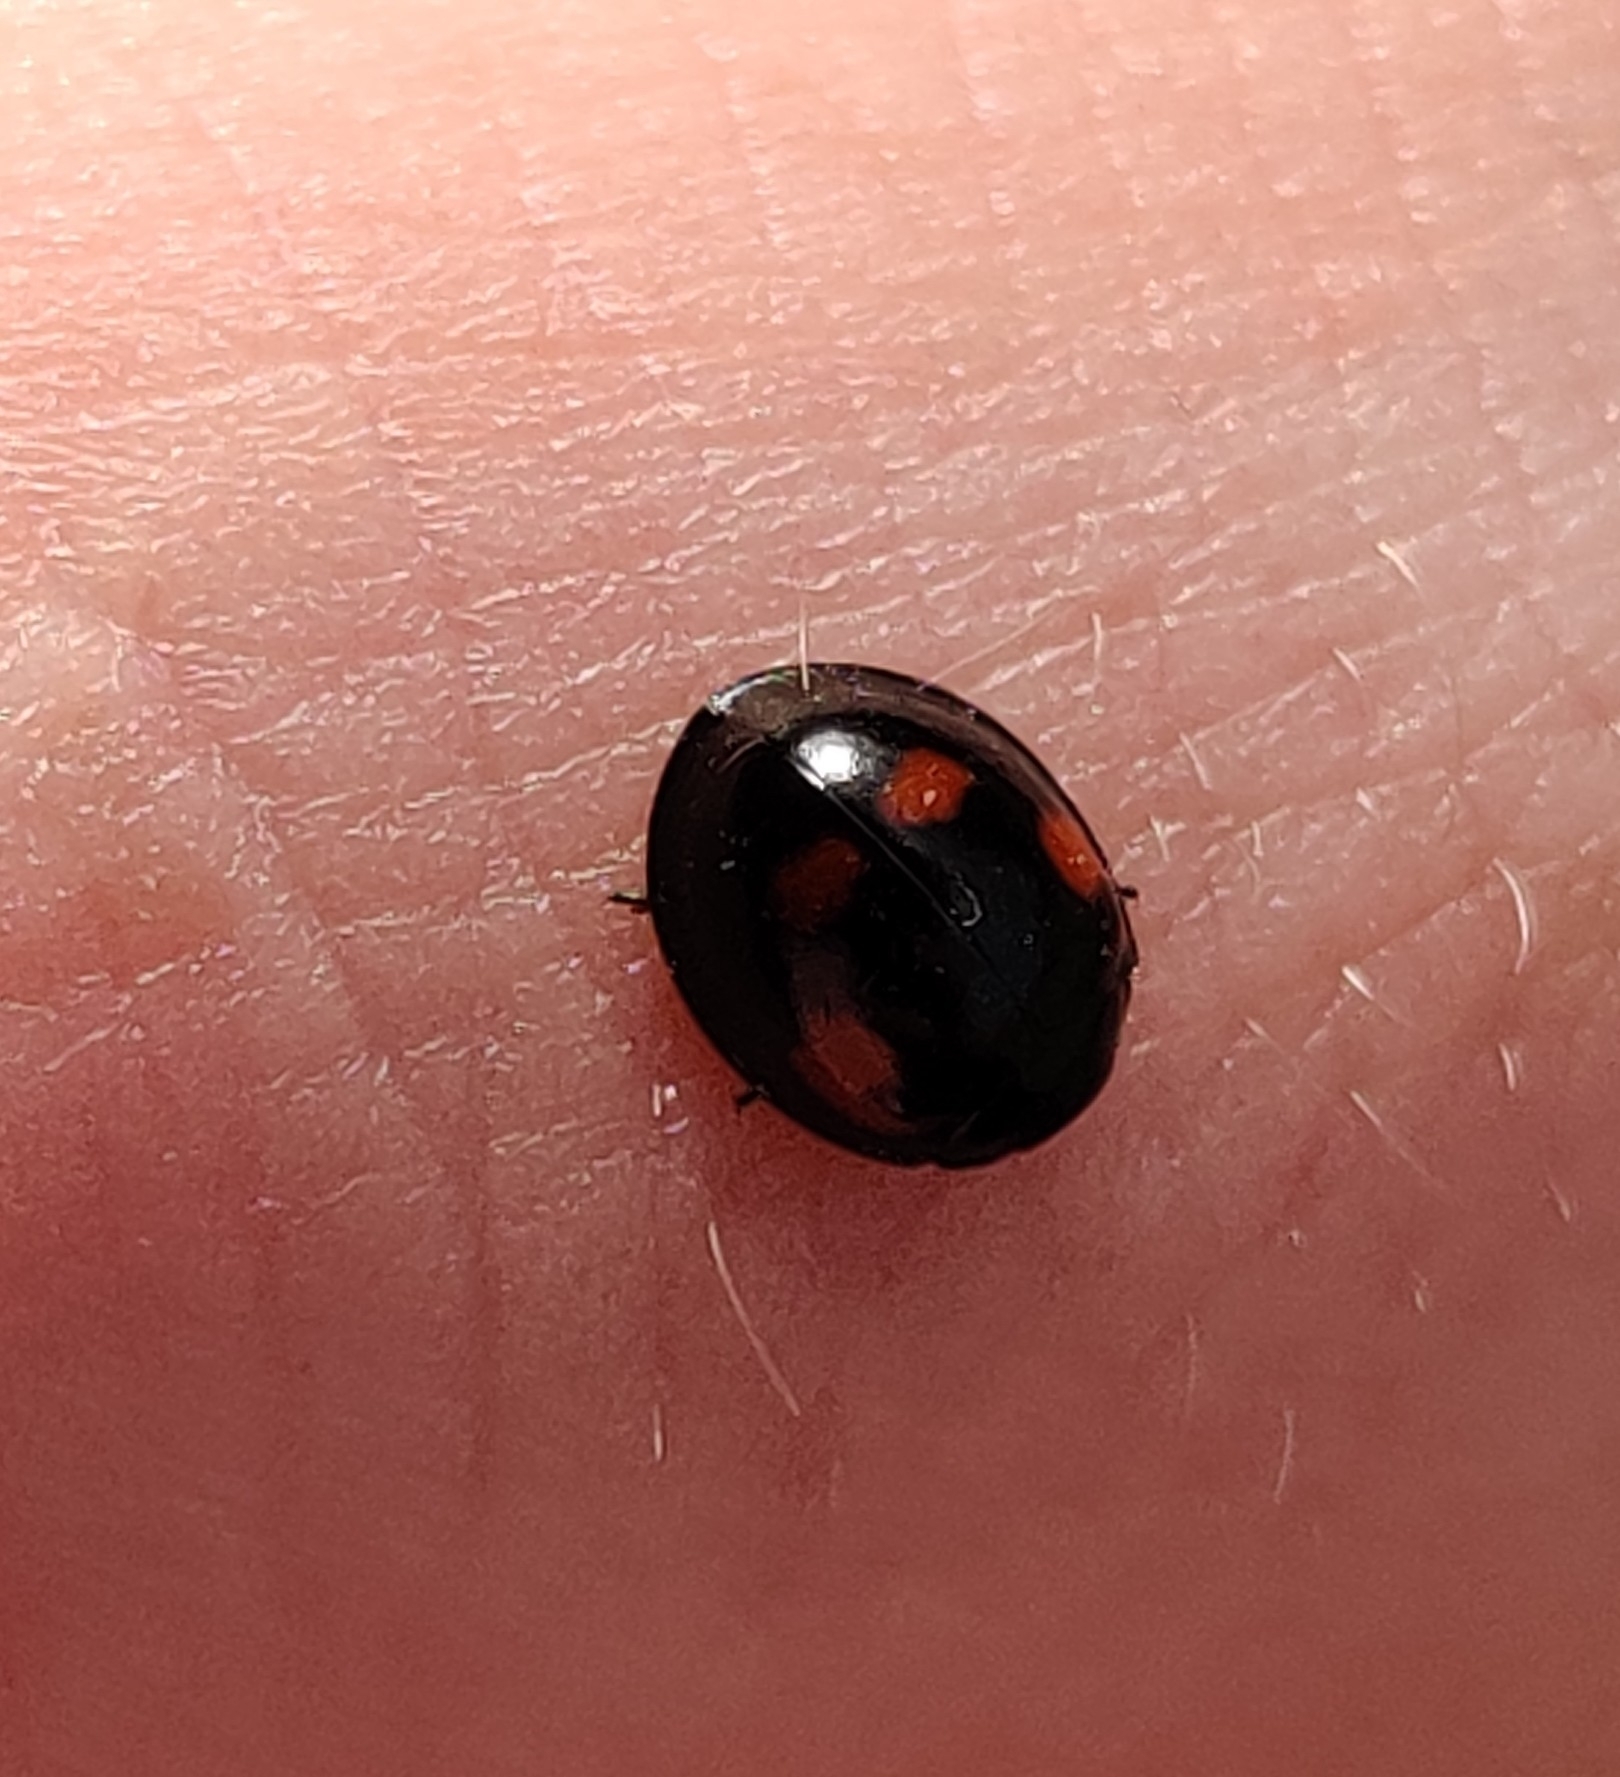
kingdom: Animalia
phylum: Arthropoda
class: Insecta
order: Coleoptera
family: Coccinellidae
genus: Brumus
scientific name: Brumus quadripustulatus
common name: Ladybird beetle
